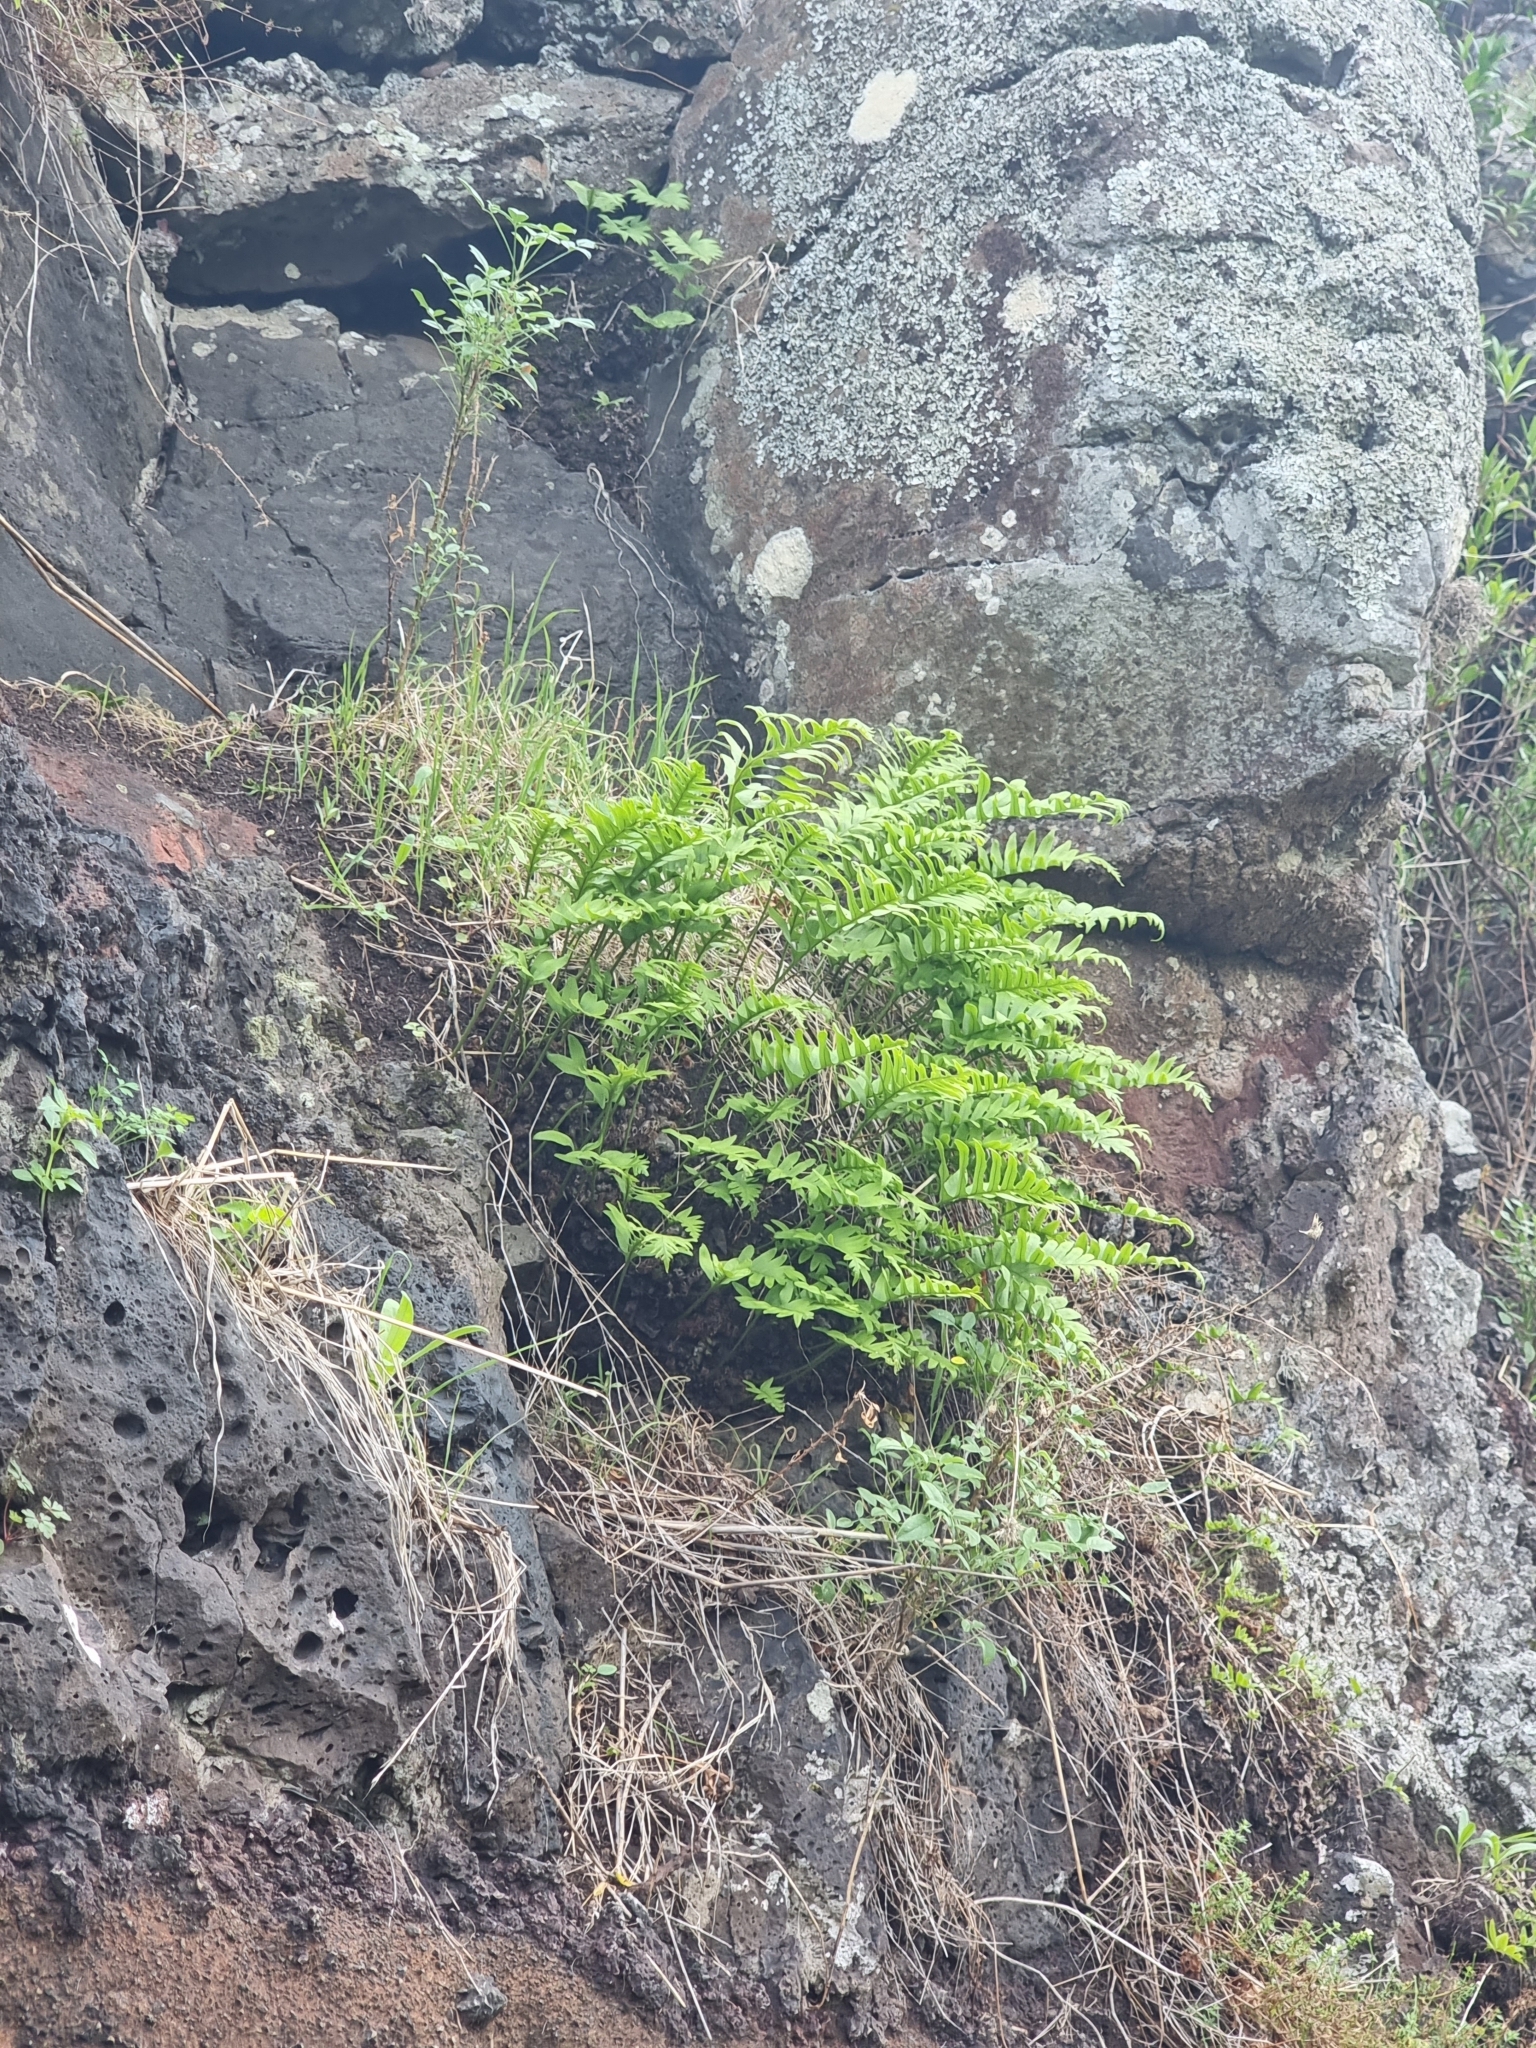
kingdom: Plantae
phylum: Tracheophyta
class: Polypodiopsida
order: Polypodiales
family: Polypodiaceae
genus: Polypodium
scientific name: Polypodium macaronesicum
